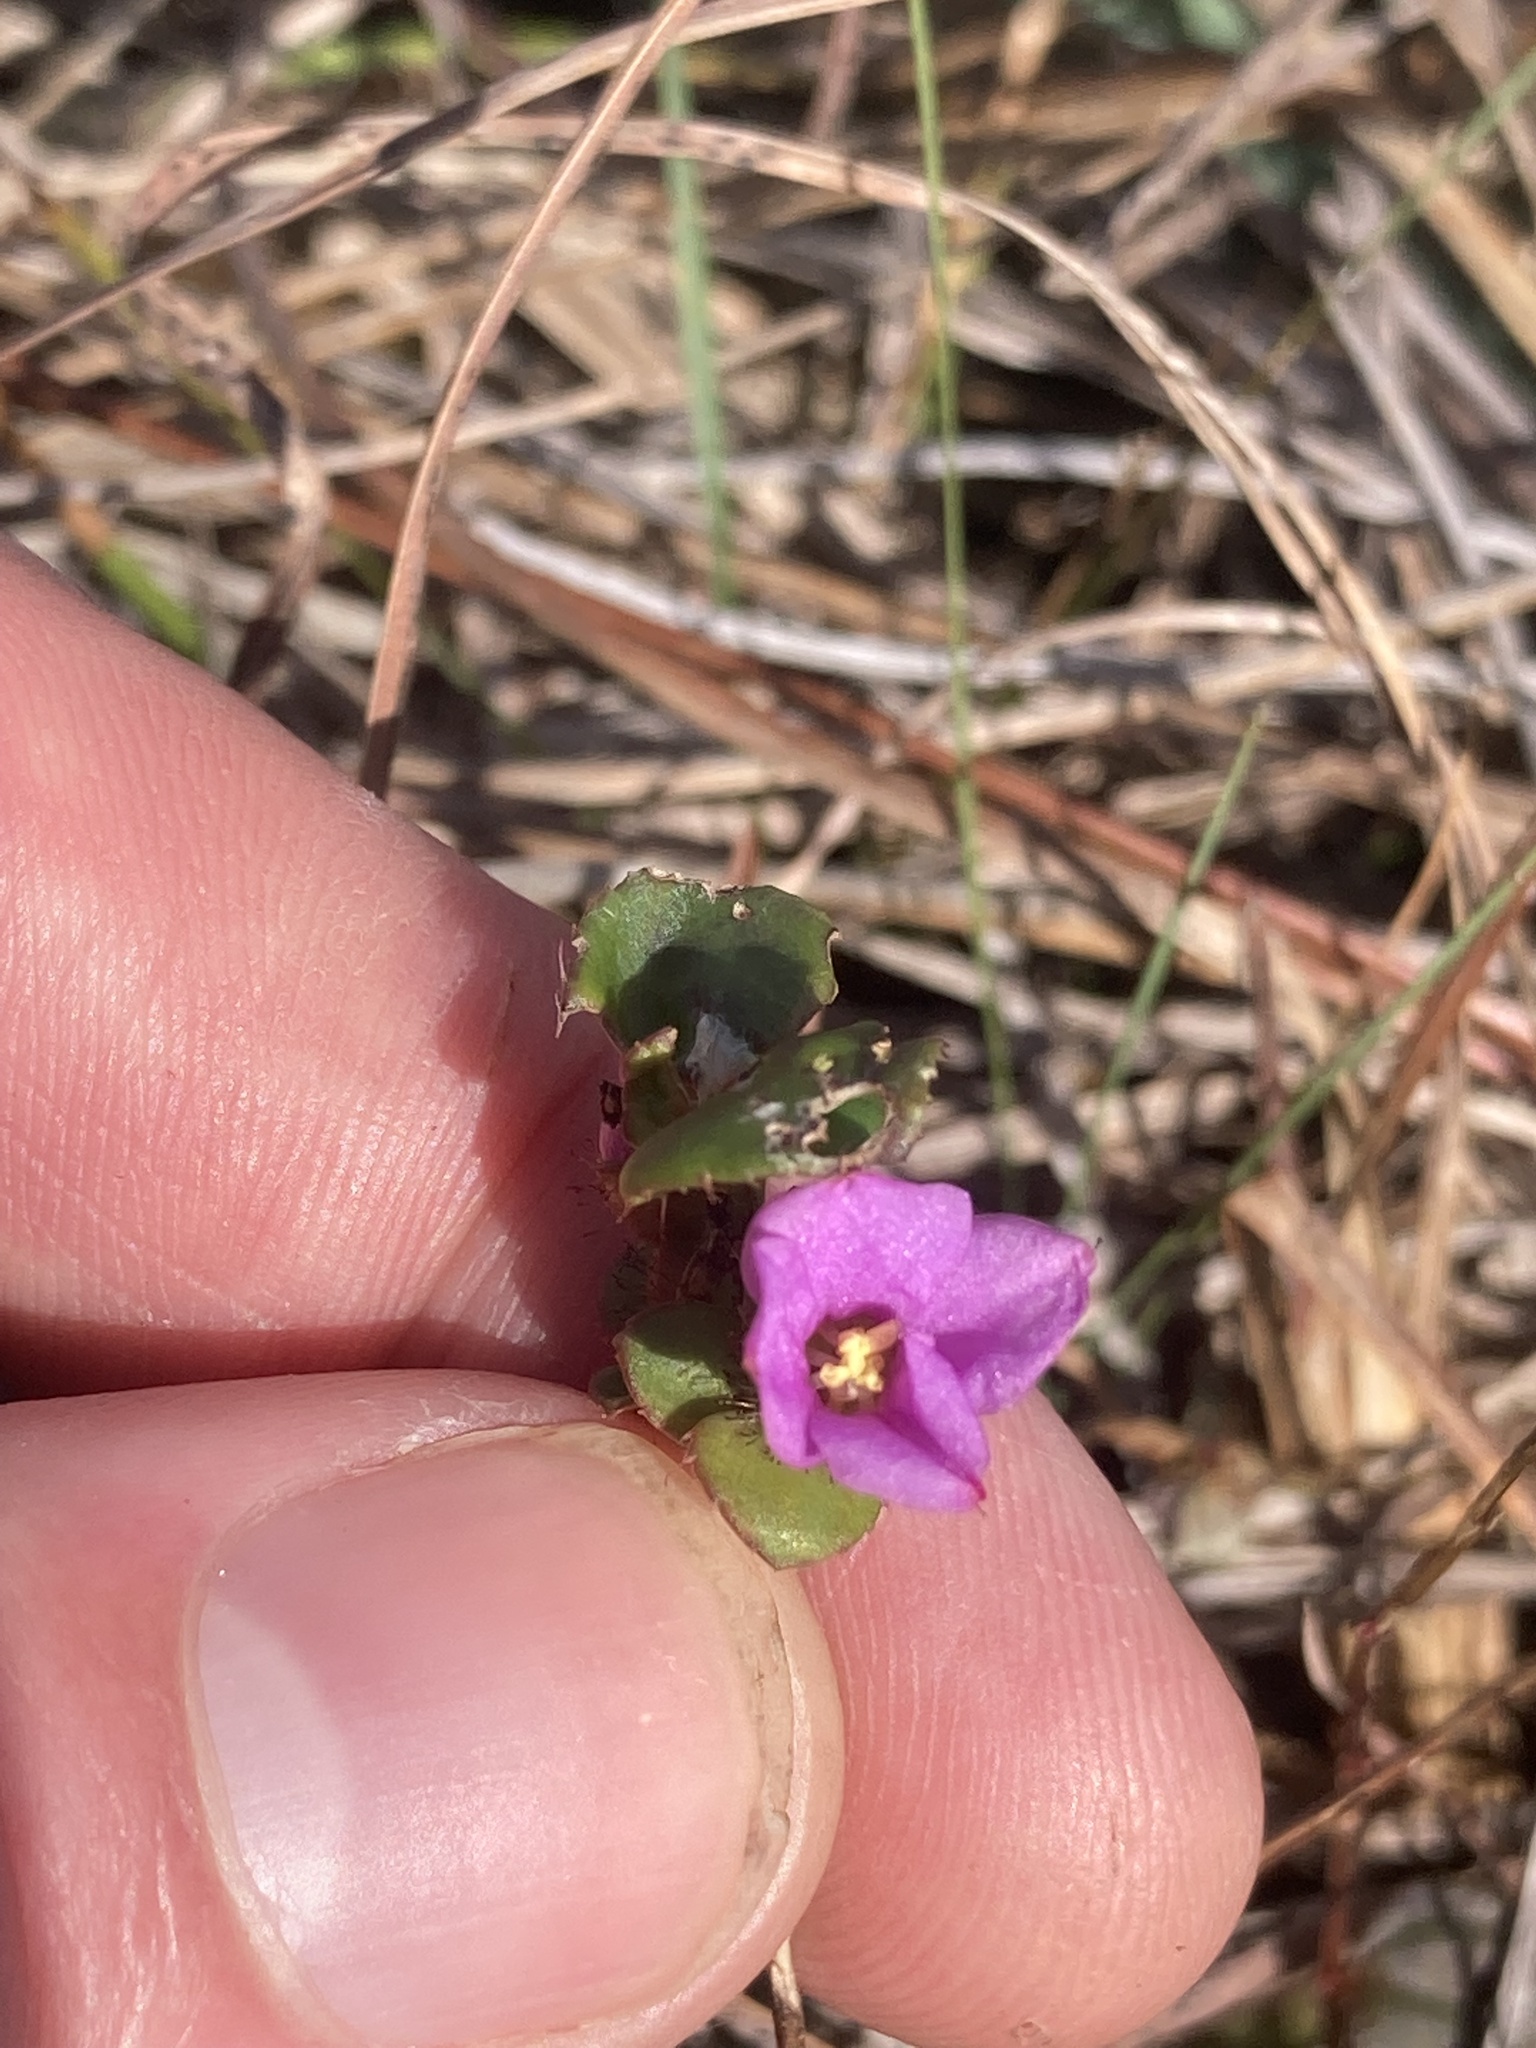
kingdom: Plantae
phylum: Tracheophyta
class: Magnoliopsida
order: Myrtales
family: Melastomataceae
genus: Rhexia
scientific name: Rhexia nuttallii
